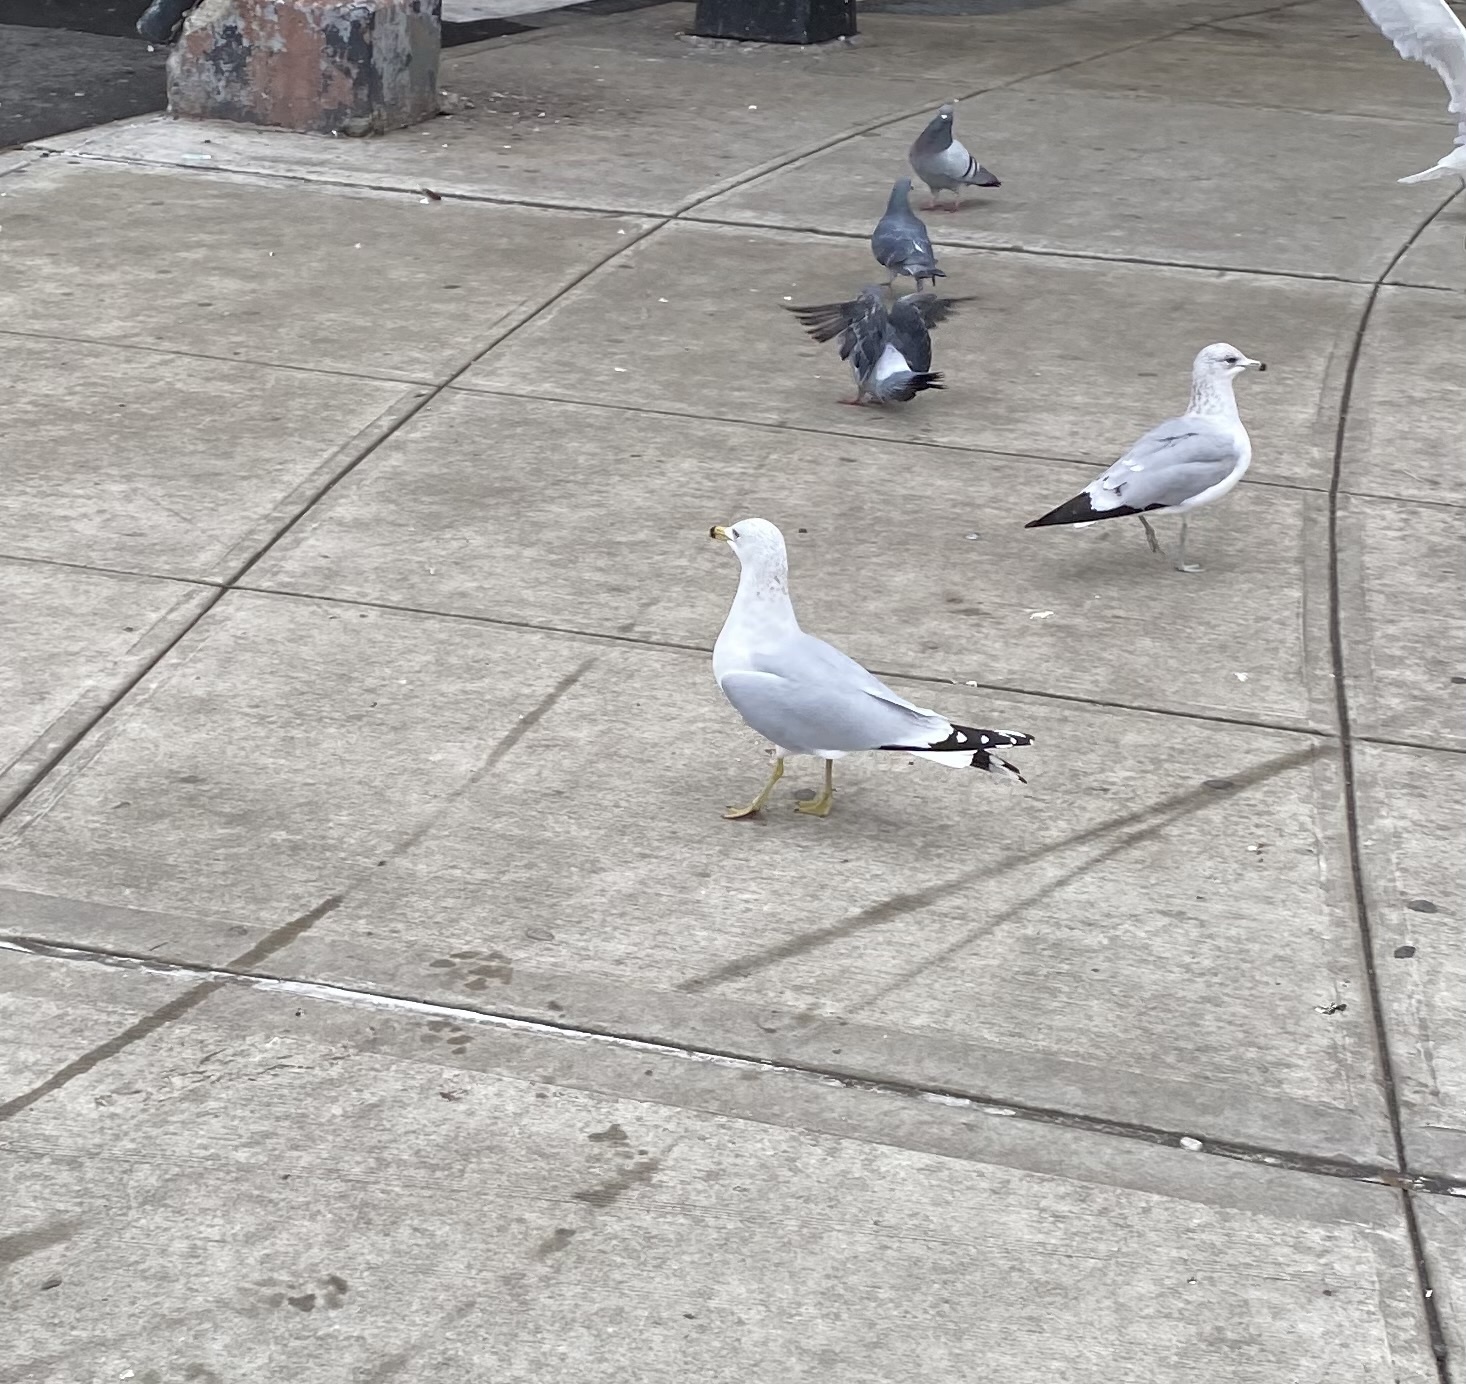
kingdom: Animalia
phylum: Chordata
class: Aves
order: Charadriiformes
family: Laridae
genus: Larus
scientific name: Larus delawarensis
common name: Ring-billed gull
